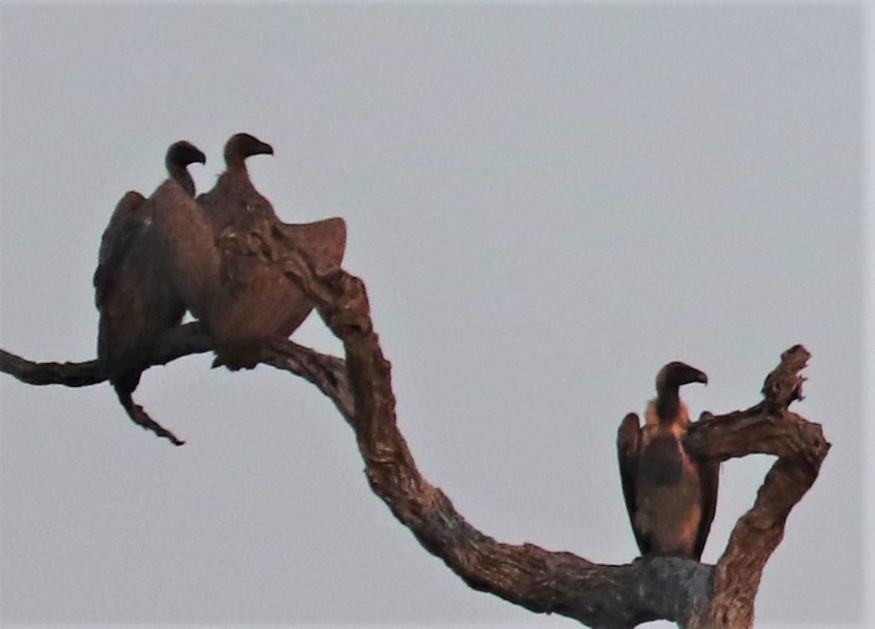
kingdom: Animalia
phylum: Chordata
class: Aves
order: Accipitriformes
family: Accipitridae
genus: Gyps
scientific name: Gyps africanus
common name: White-backed vulture
